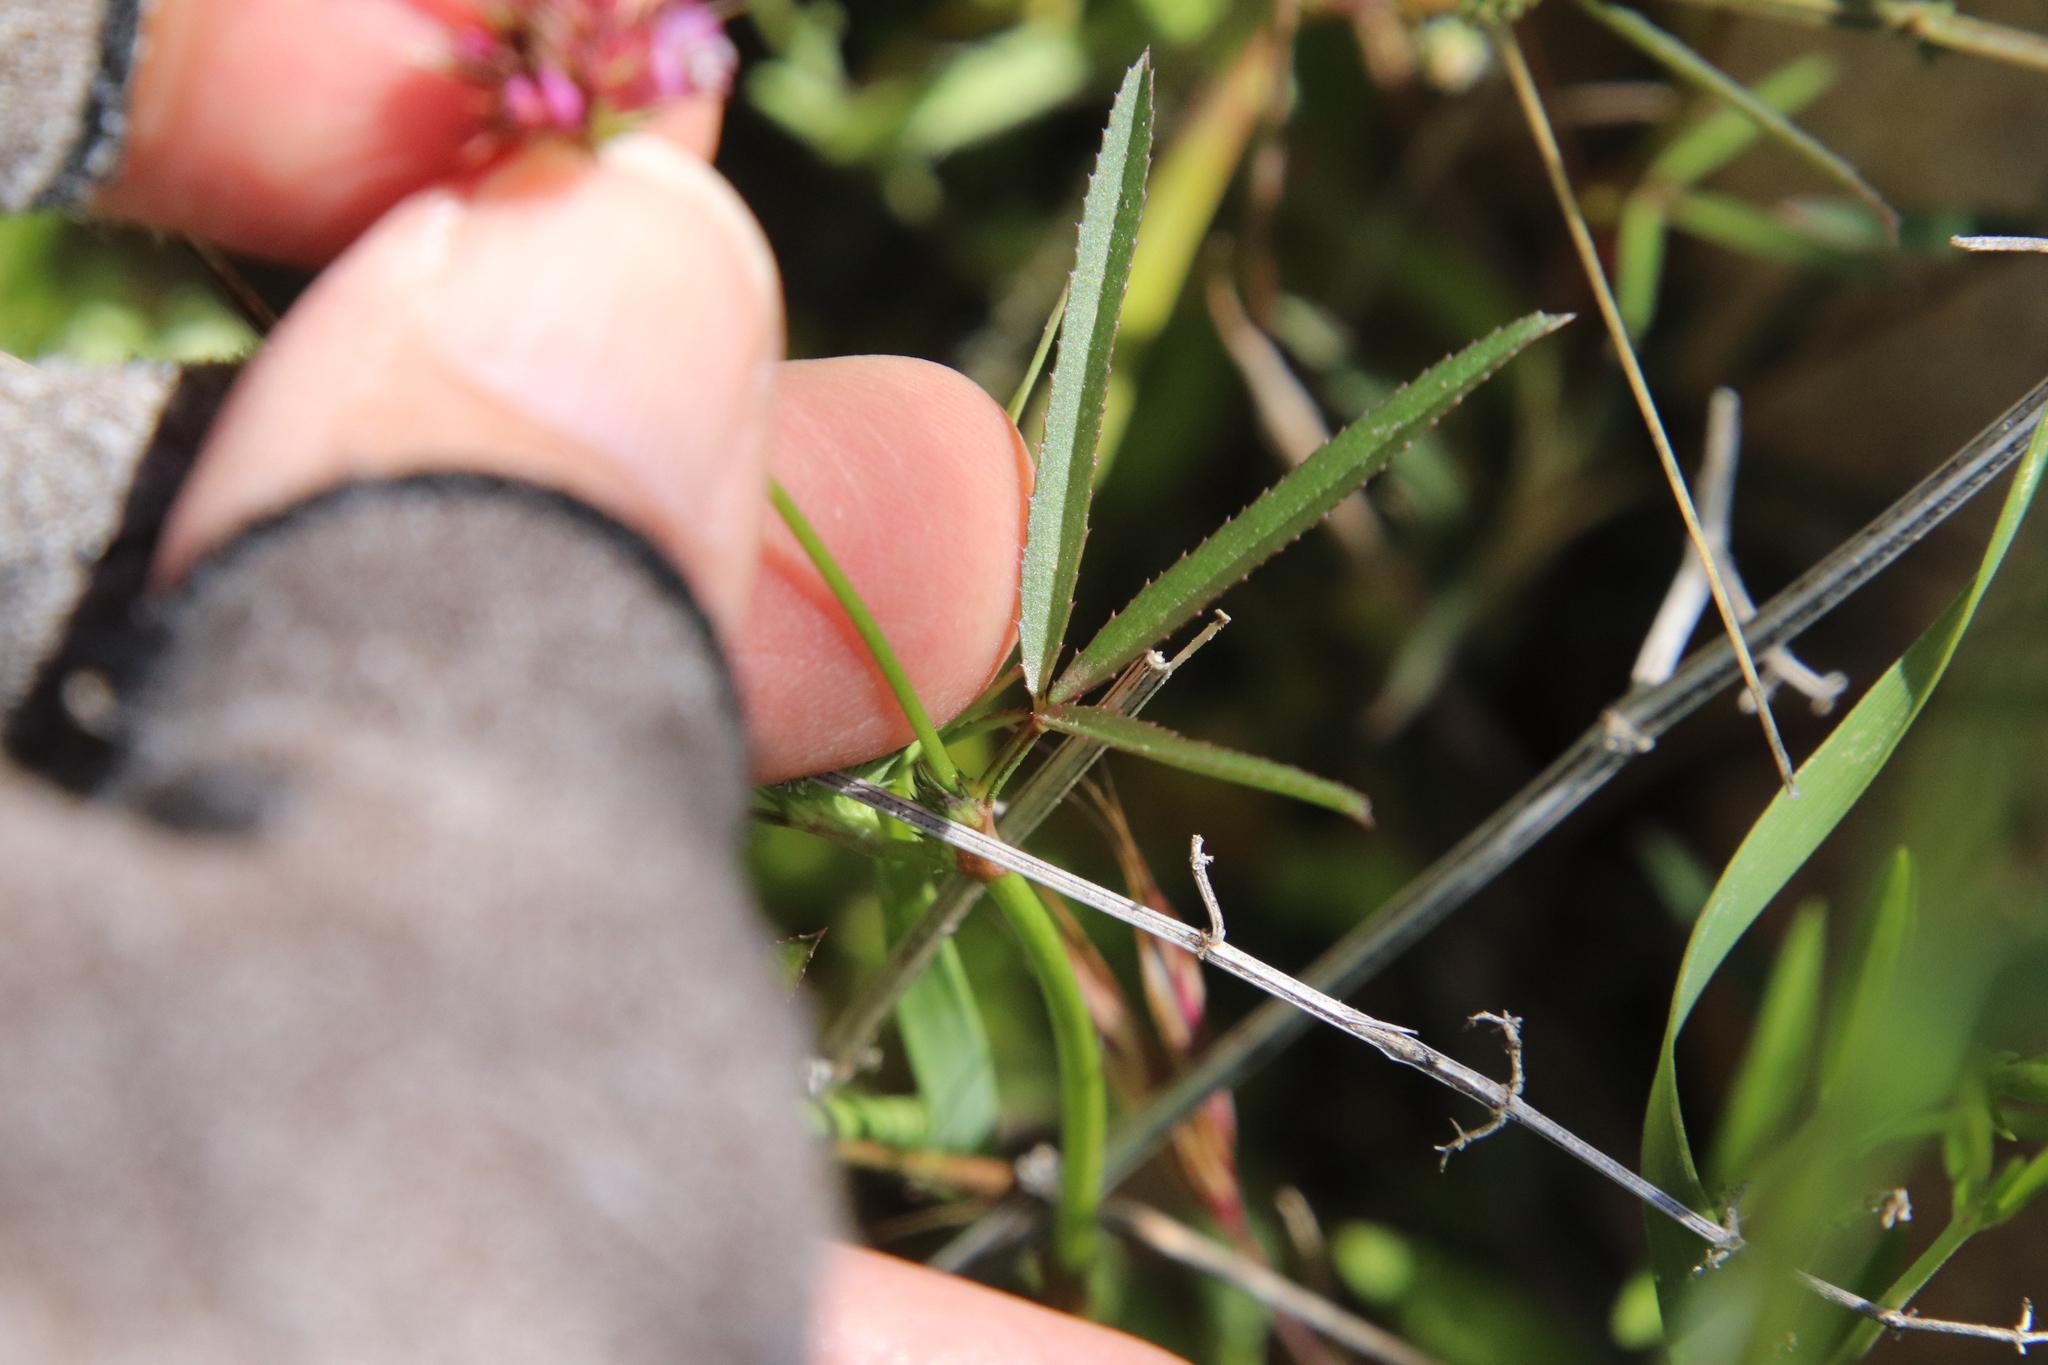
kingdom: Plantae
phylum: Tracheophyta
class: Magnoliopsida
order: Fabales
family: Fabaceae
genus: Trifolium
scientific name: Trifolium willdenovii
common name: Tomcat clover
